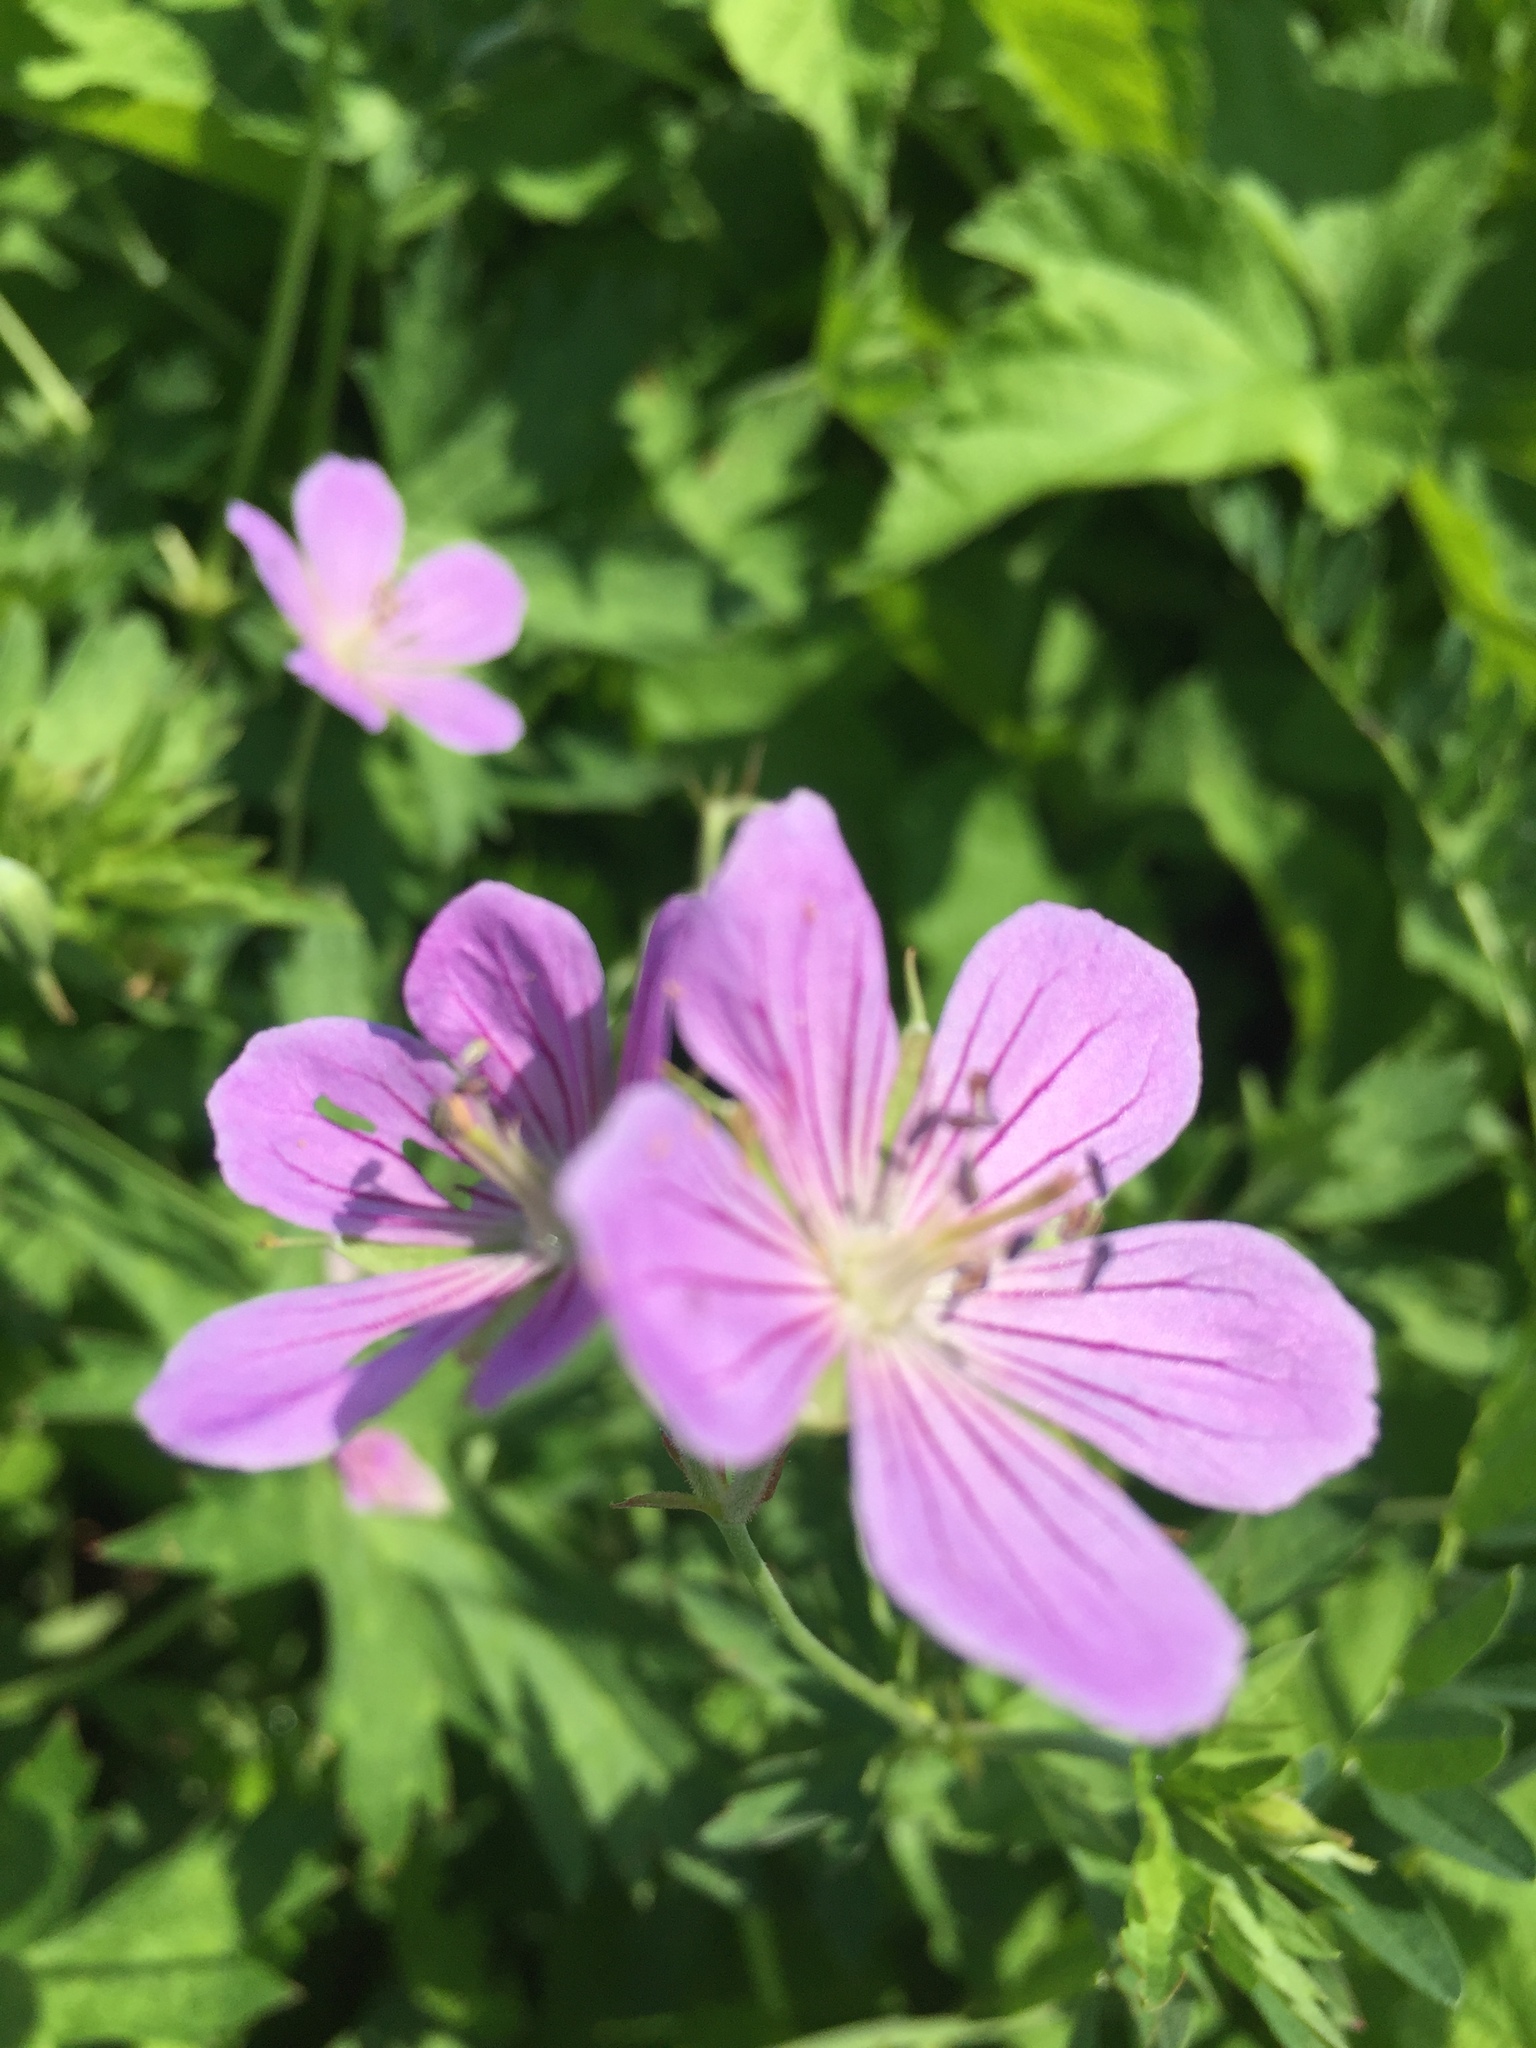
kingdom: Plantae
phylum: Tracheophyta
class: Magnoliopsida
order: Geraniales
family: Geraniaceae
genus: Geranium
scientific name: Geranium collinum
